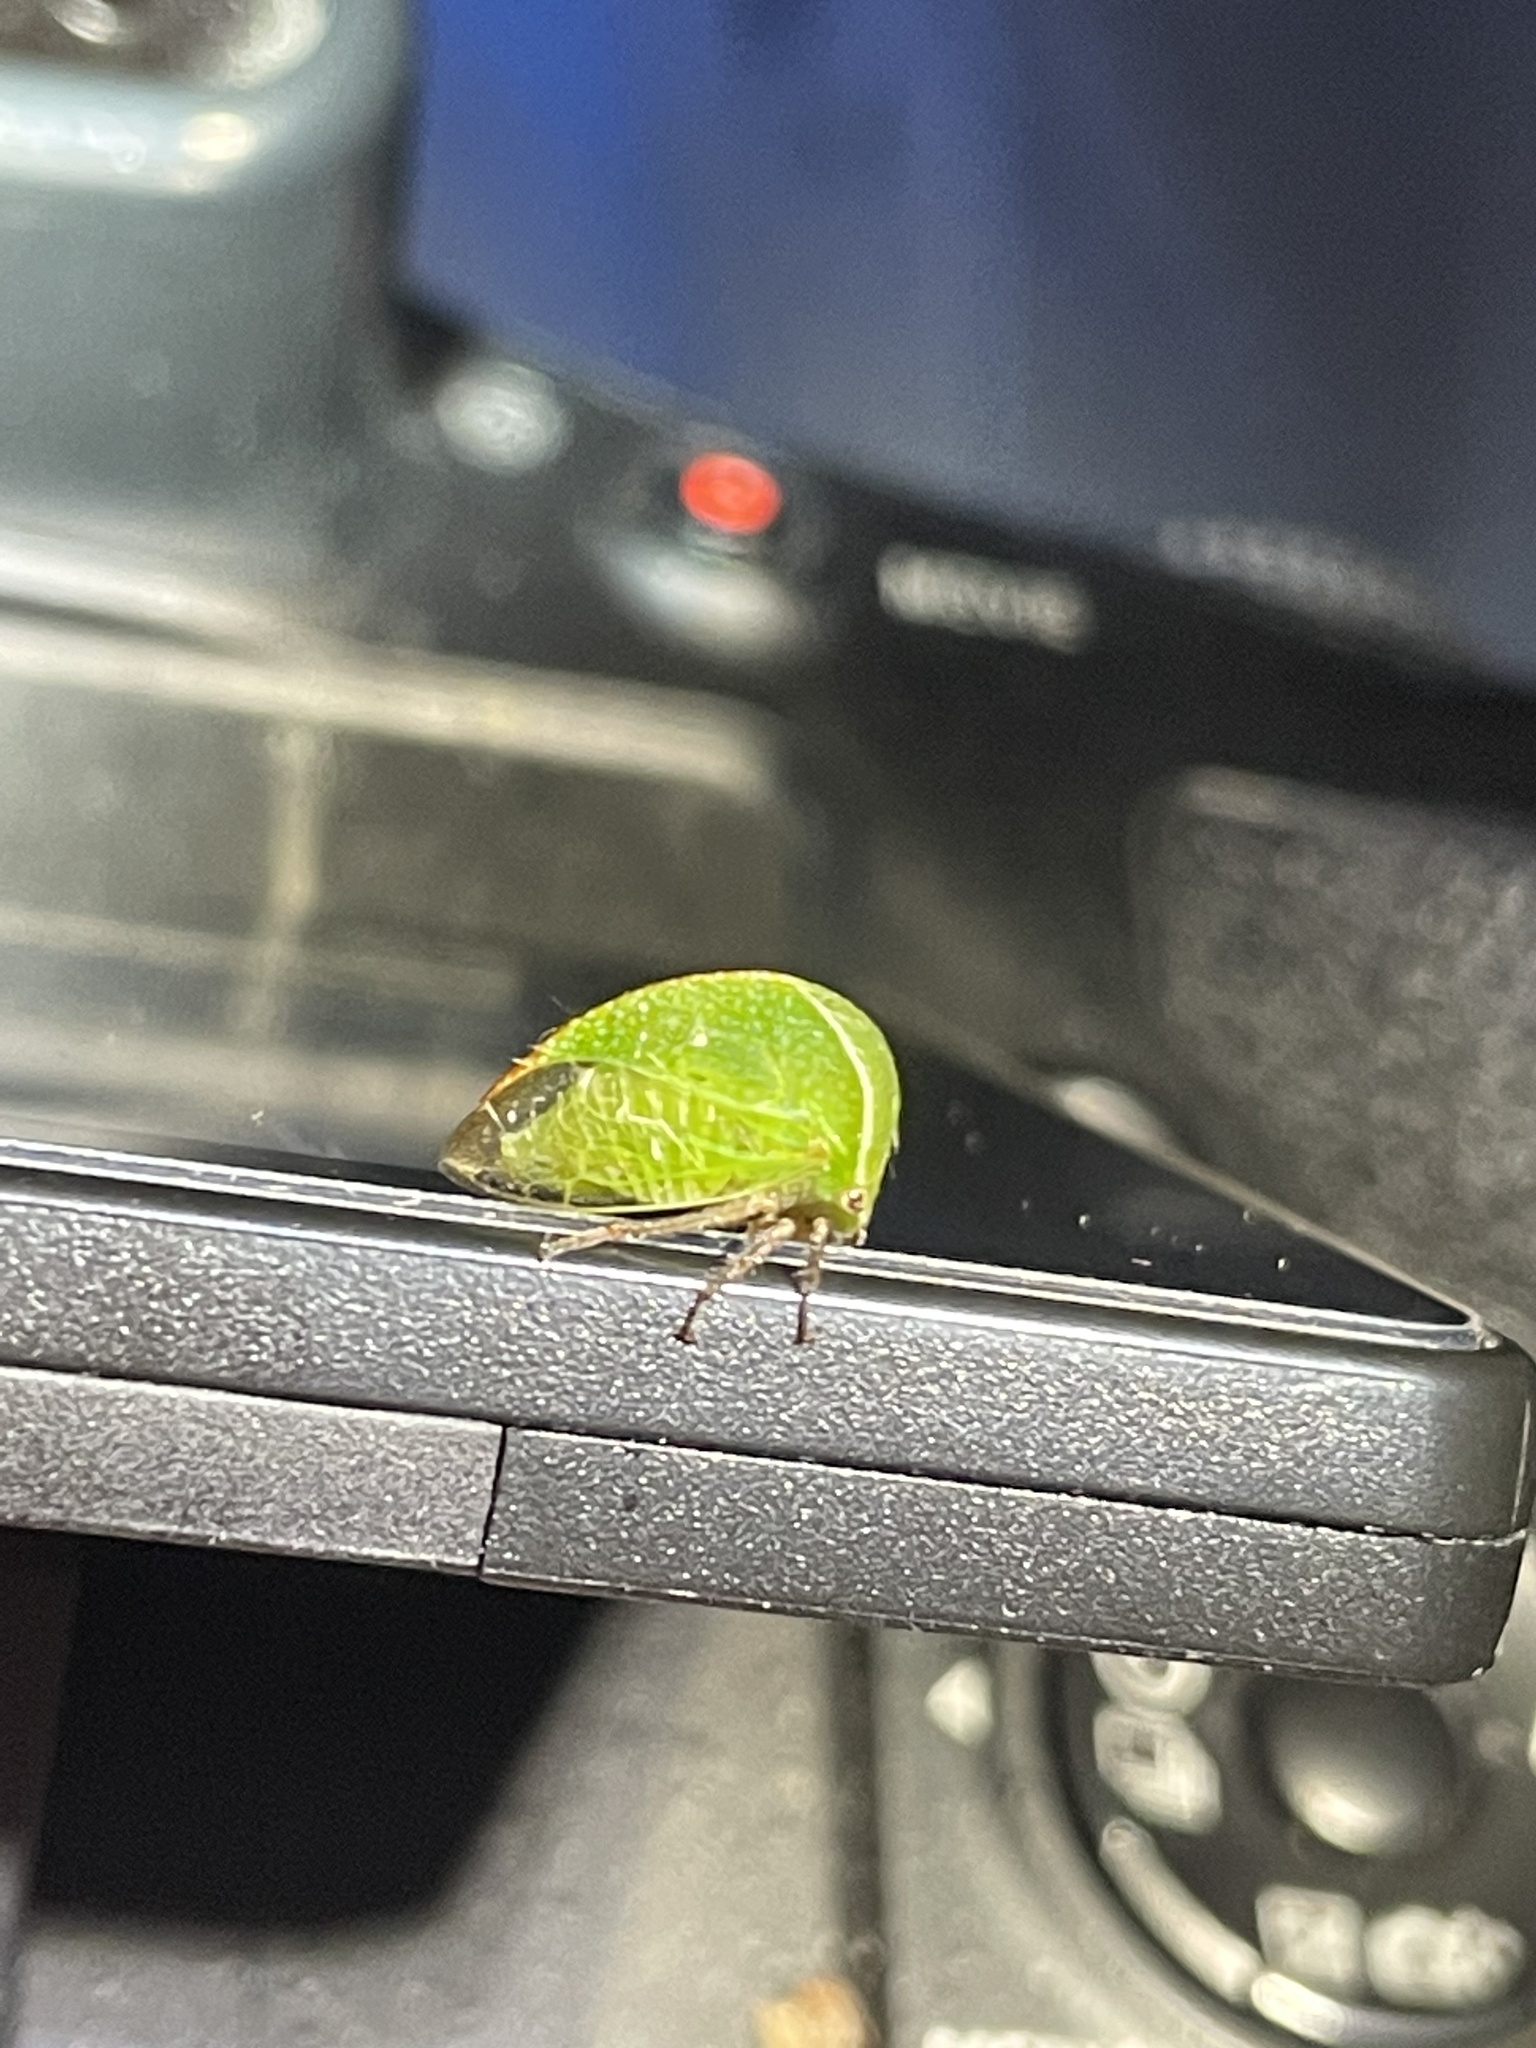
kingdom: Animalia
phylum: Arthropoda
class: Insecta
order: Hemiptera
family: Membracidae
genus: Tortistilus
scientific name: Tortistilus inermis
